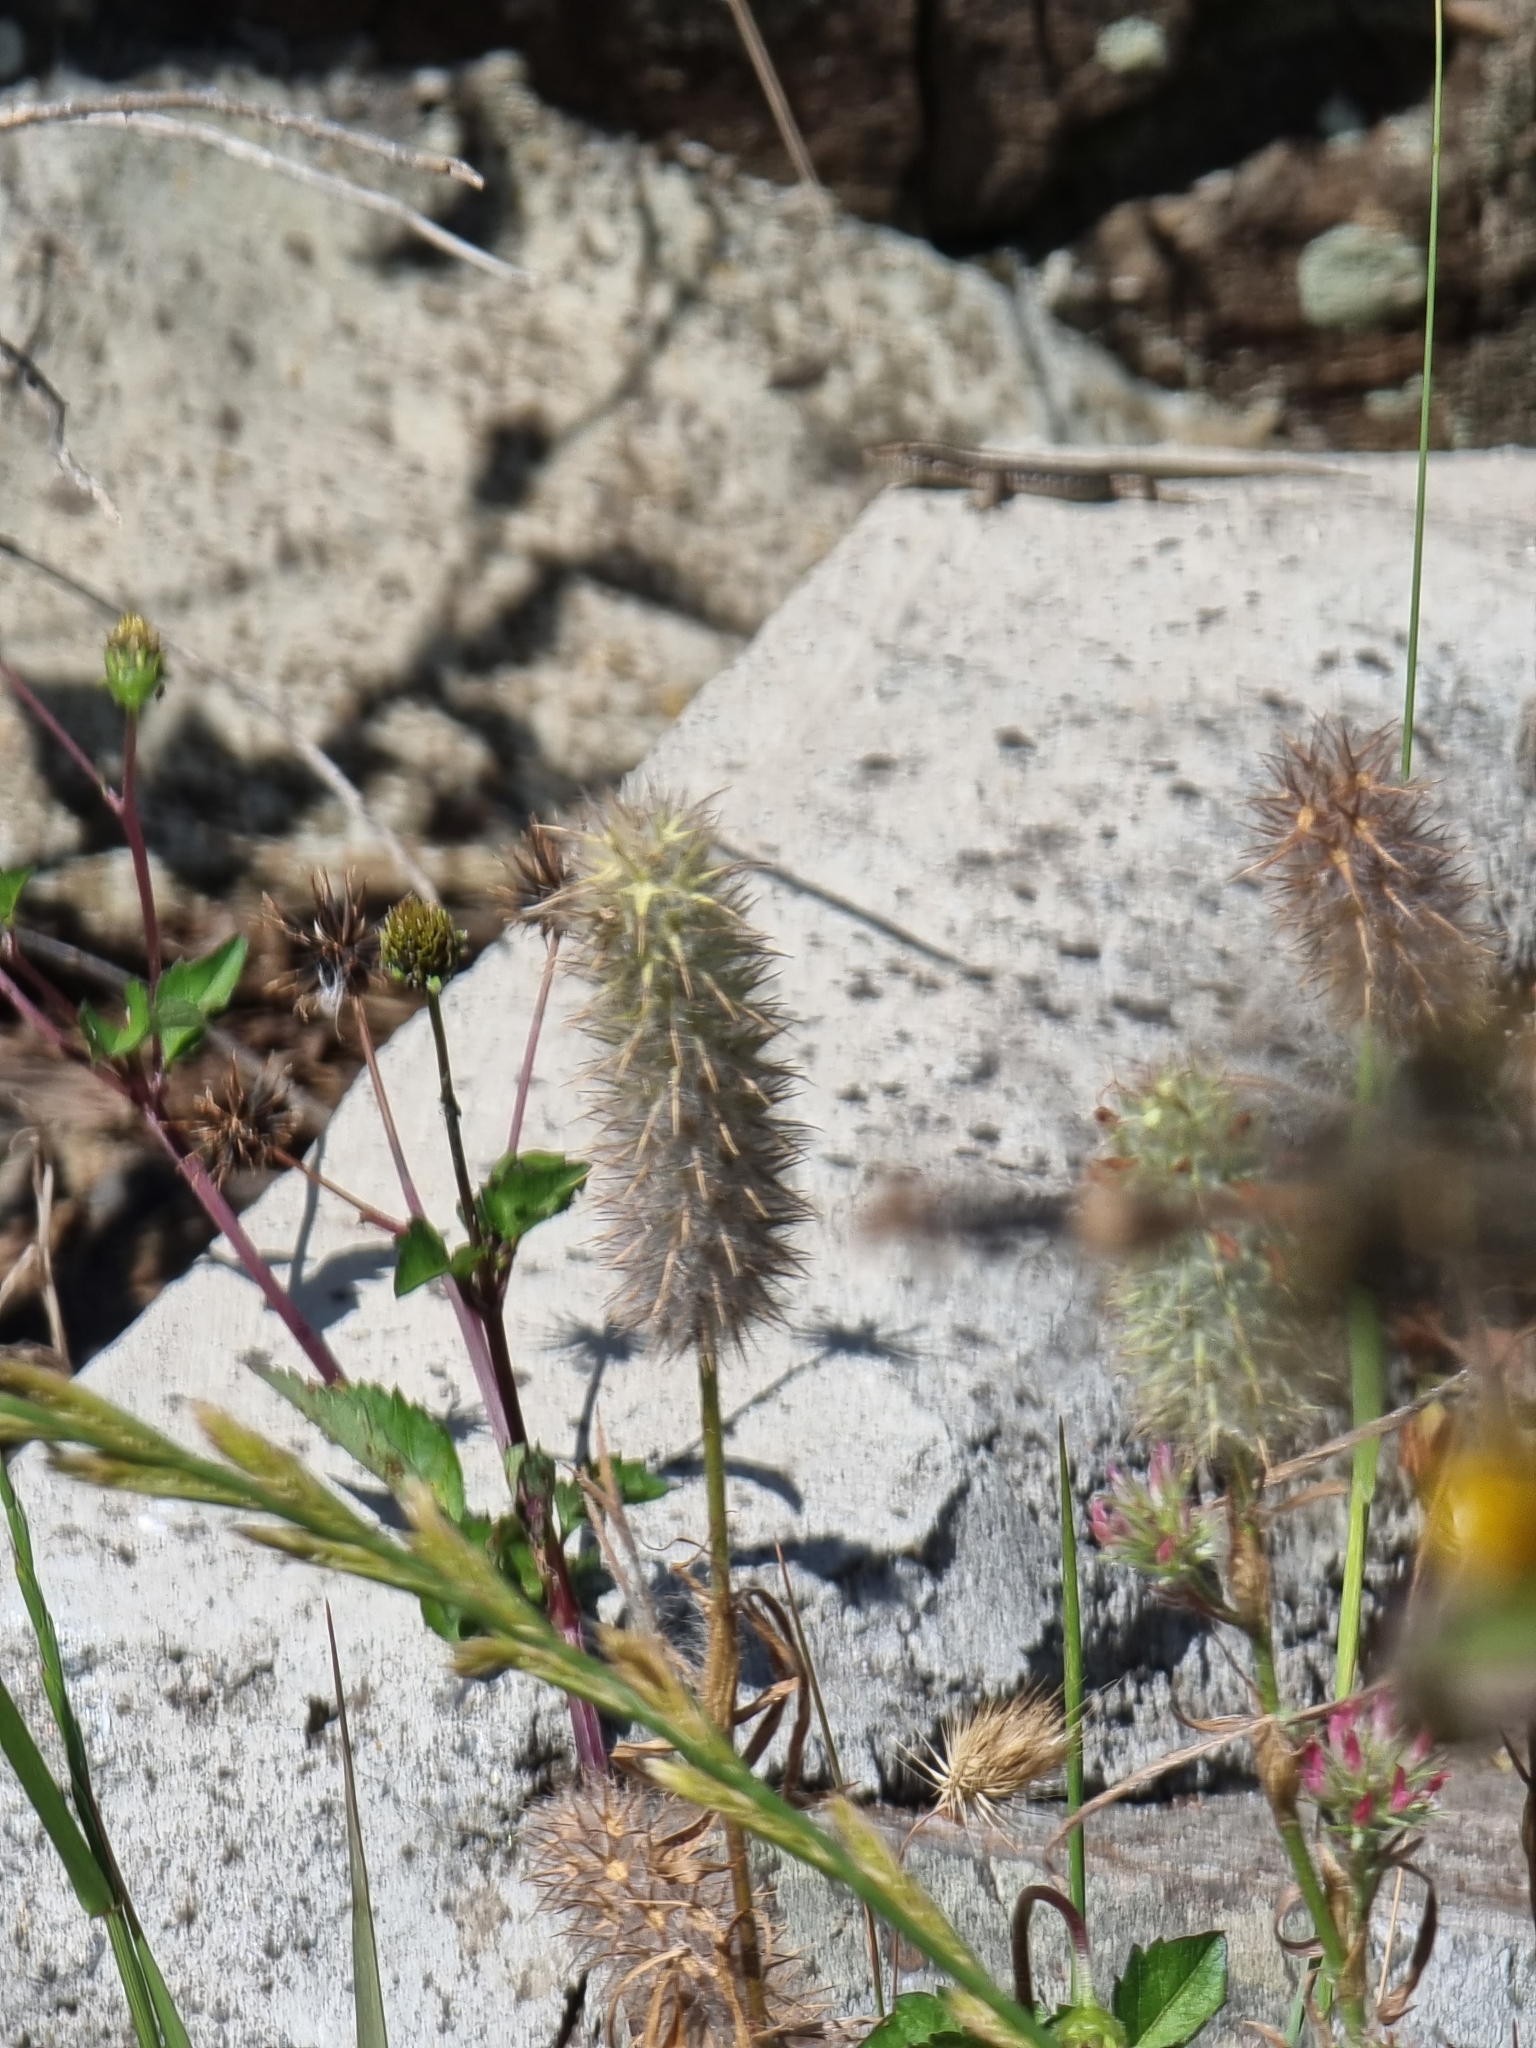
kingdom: Plantae
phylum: Tracheophyta
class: Magnoliopsida
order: Fabales
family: Fabaceae
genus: Trifolium
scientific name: Trifolium angustifolium
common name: Narrow clover
